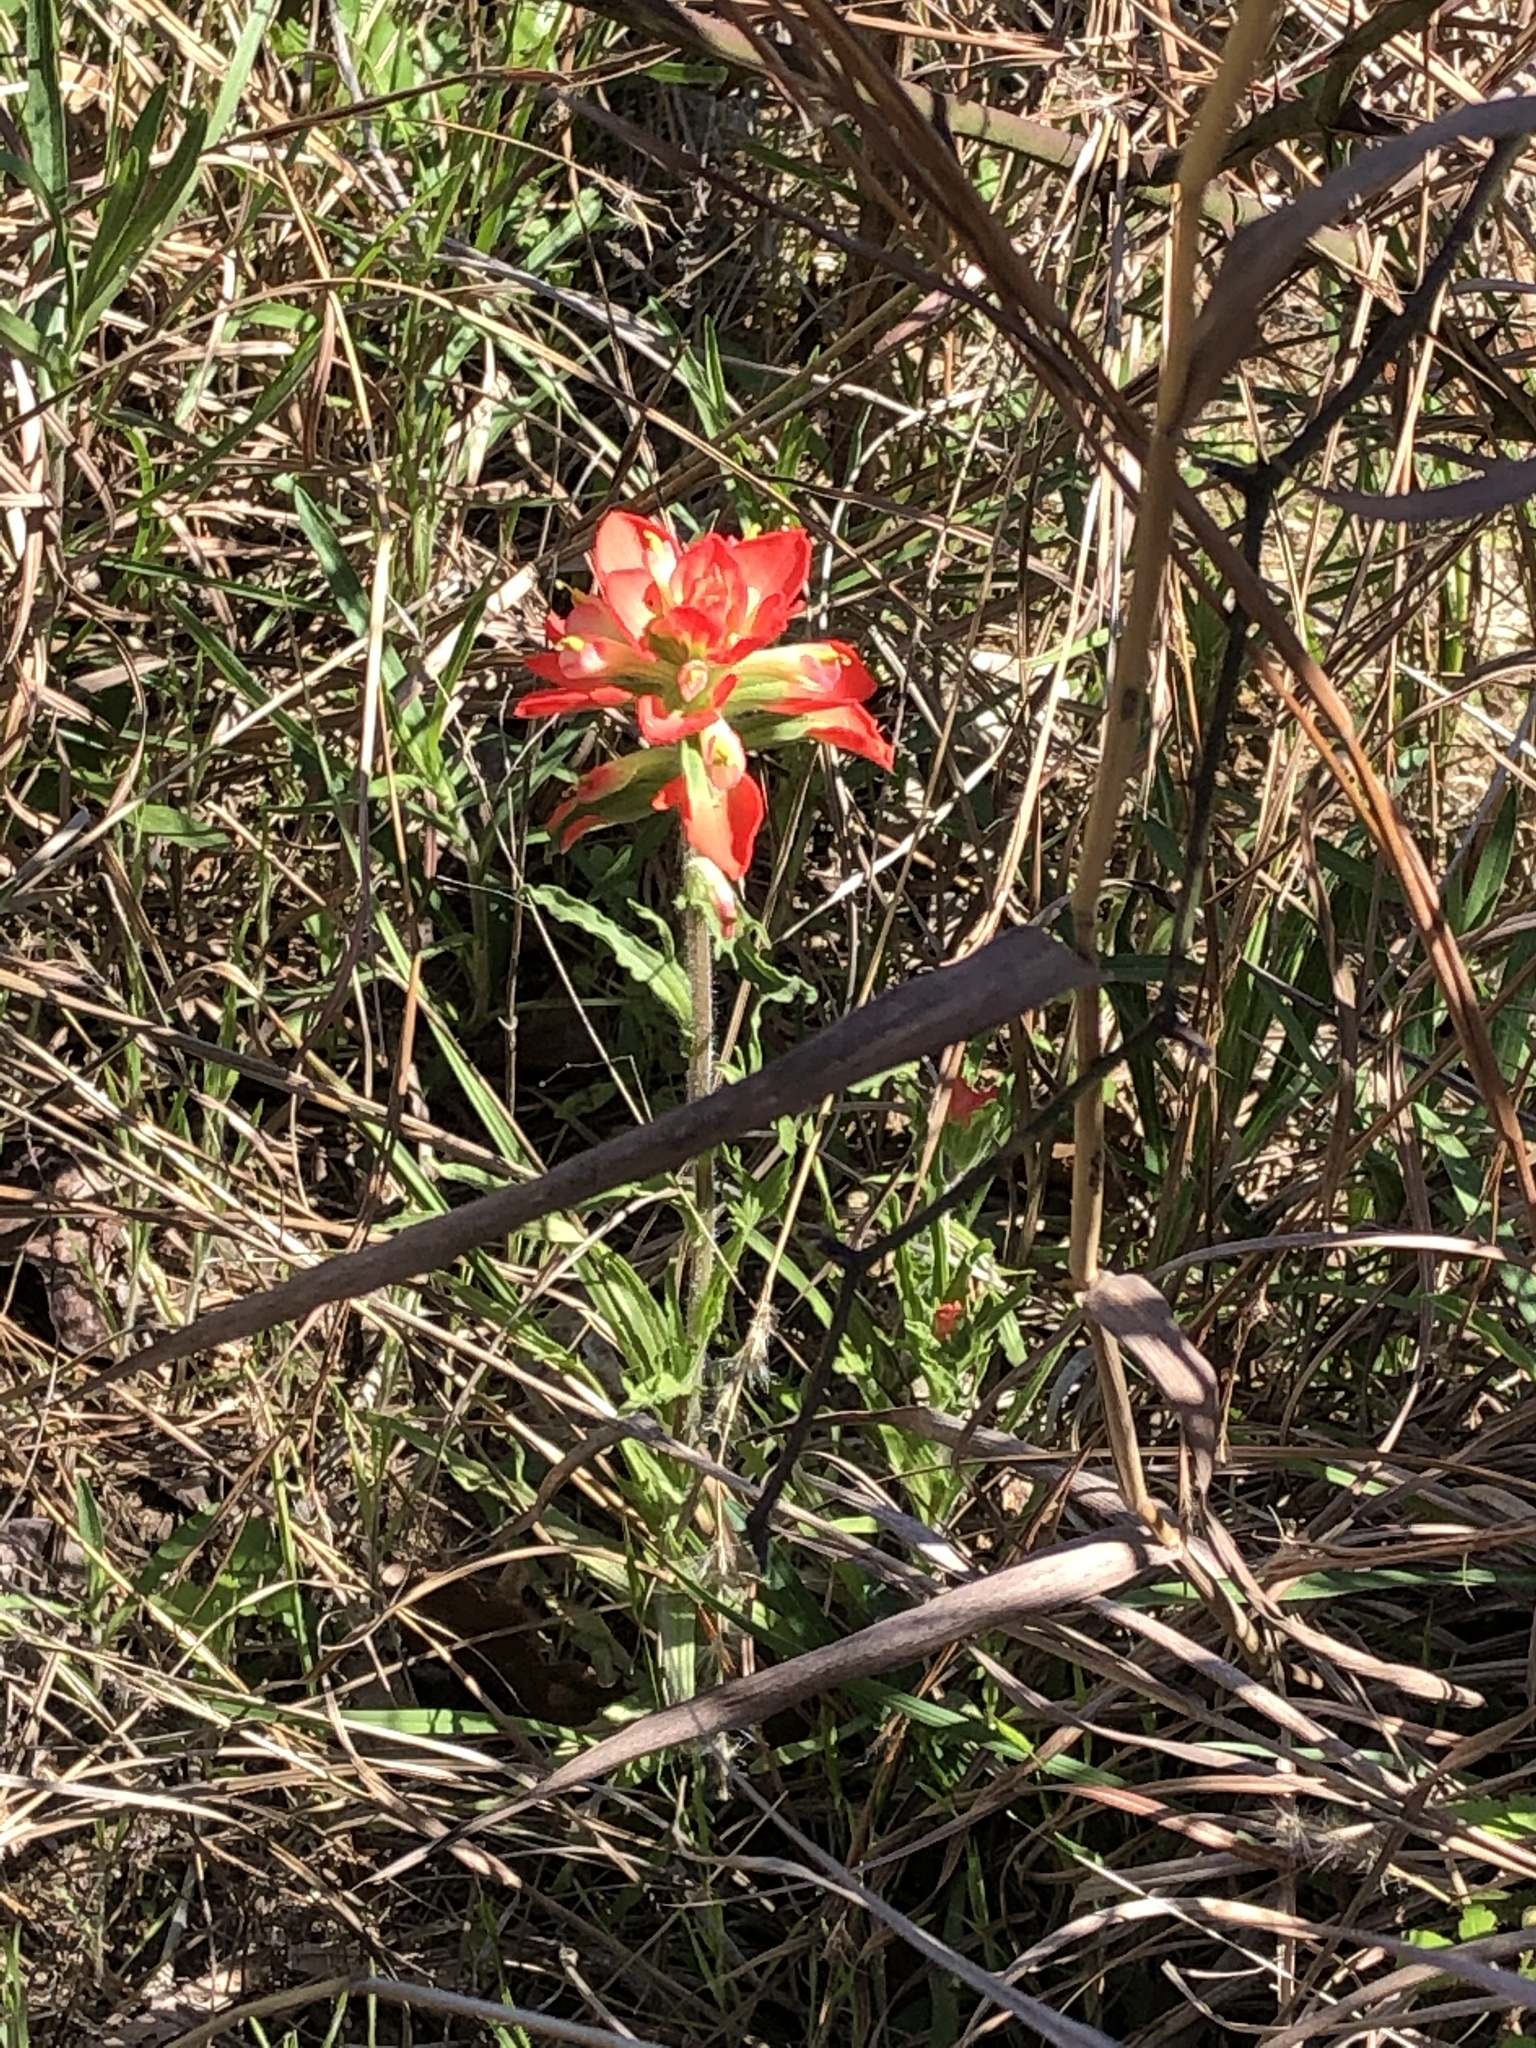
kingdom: Plantae
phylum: Tracheophyta
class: Magnoliopsida
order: Lamiales
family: Orobanchaceae
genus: Castilleja
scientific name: Castilleja indivisa
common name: Texas paintbrush
